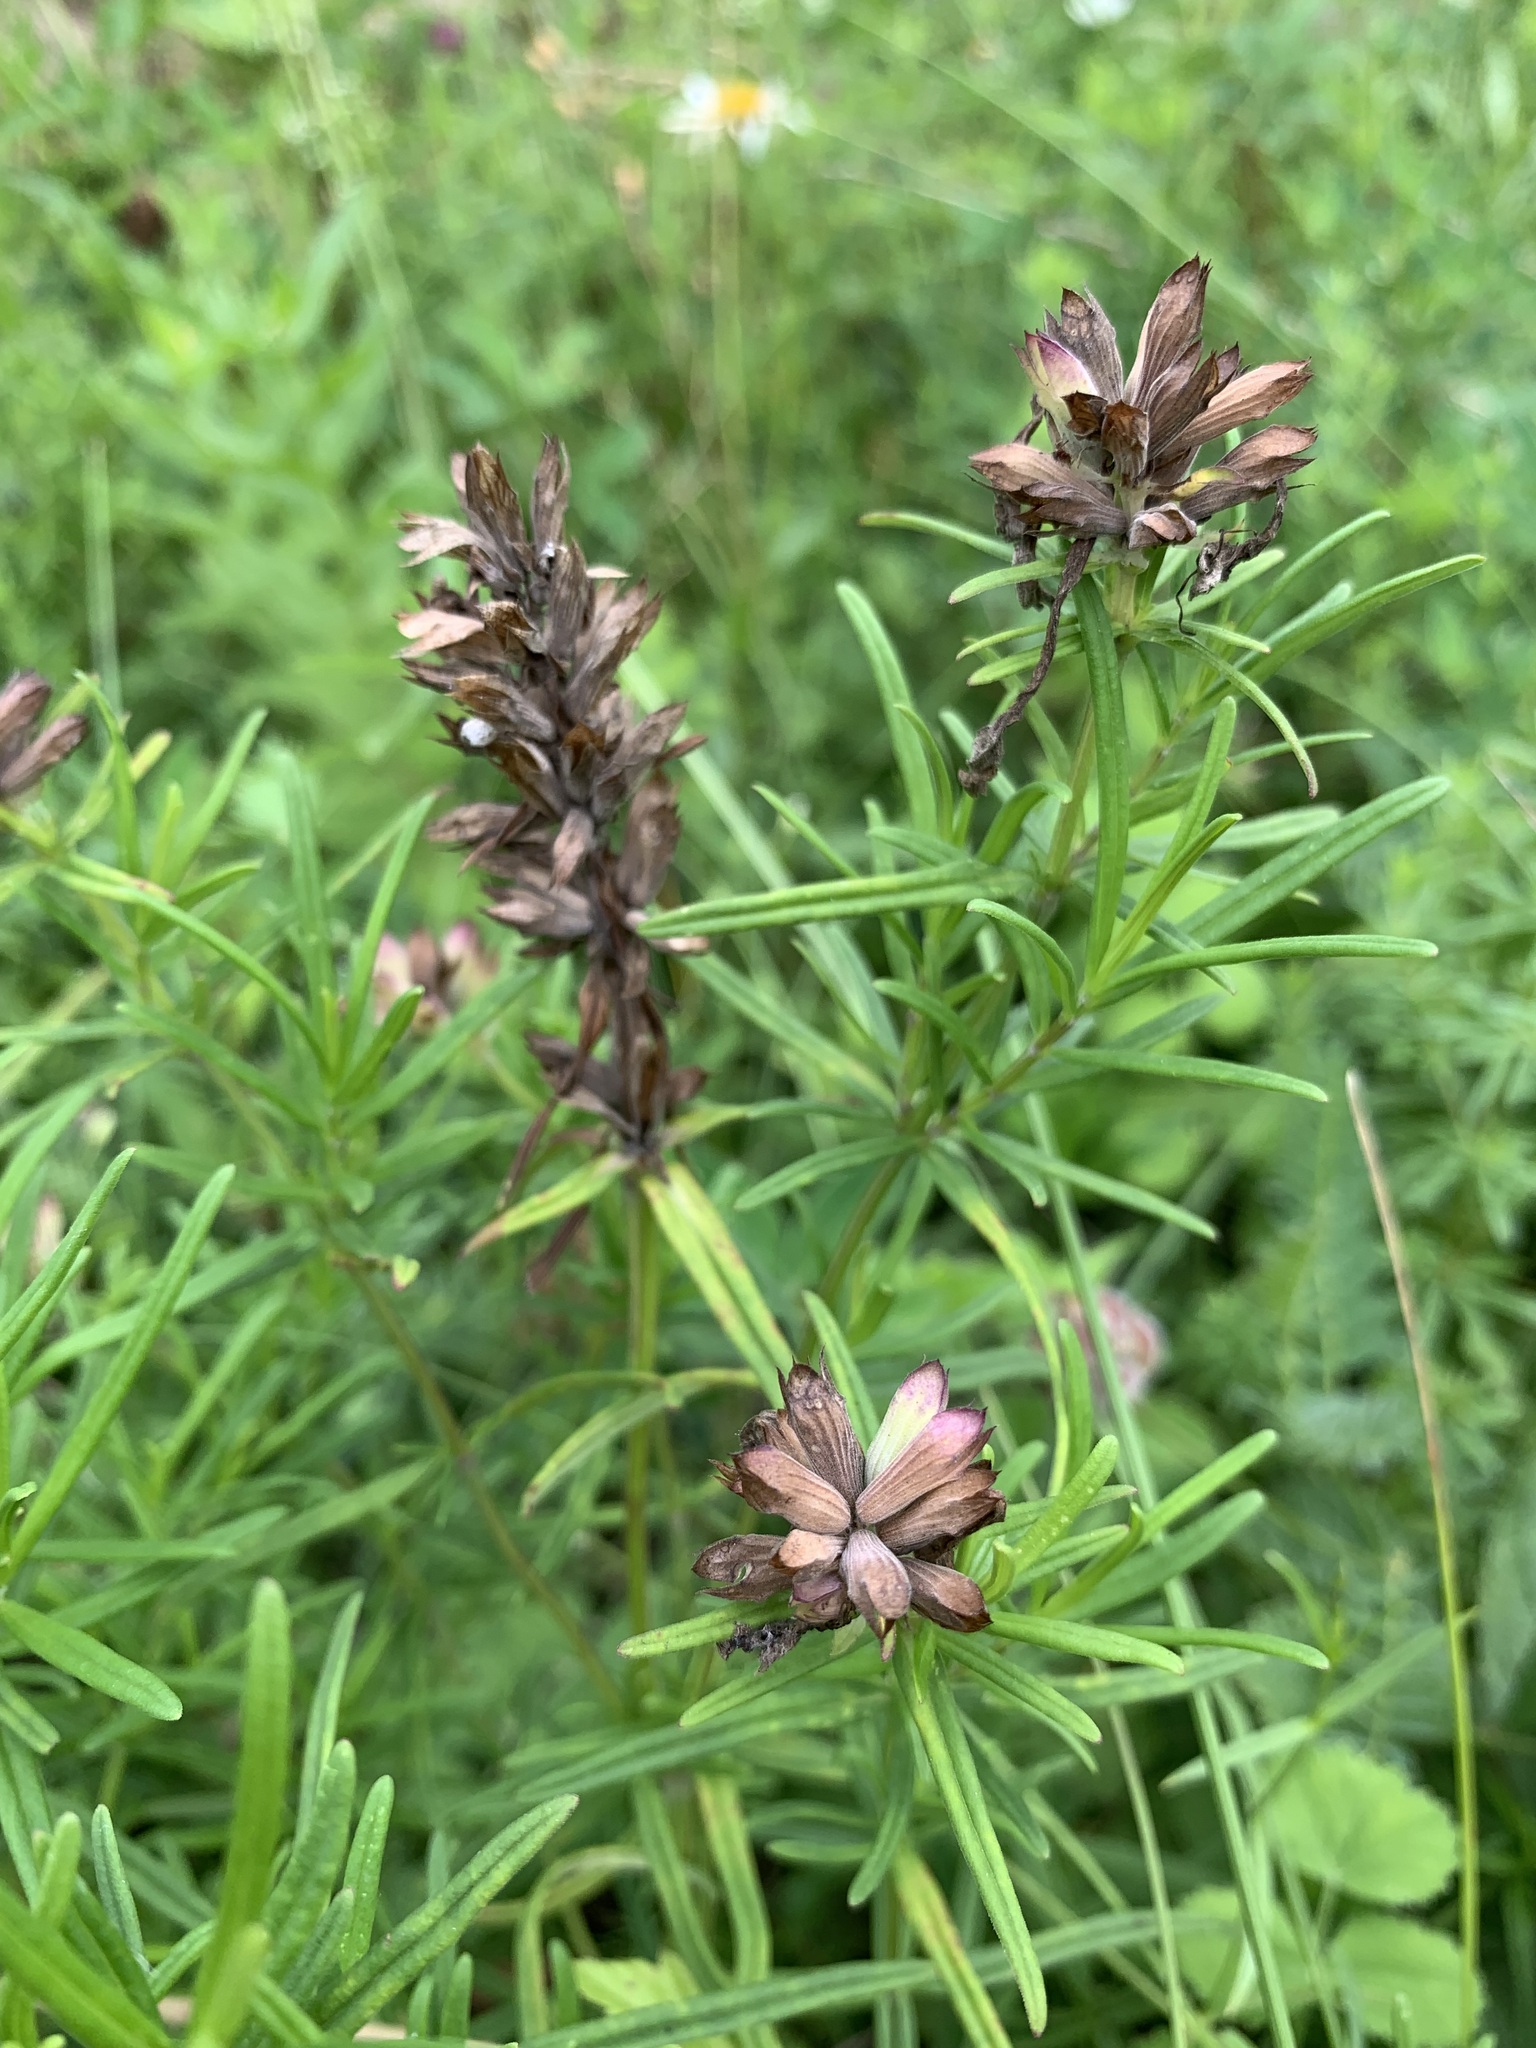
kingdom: Plantae
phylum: Tracheophyta
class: Magnoliopsida
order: Lamiales
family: Lamiaceae
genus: Dracocephalum
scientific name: Dracocephalum ruyschiana
